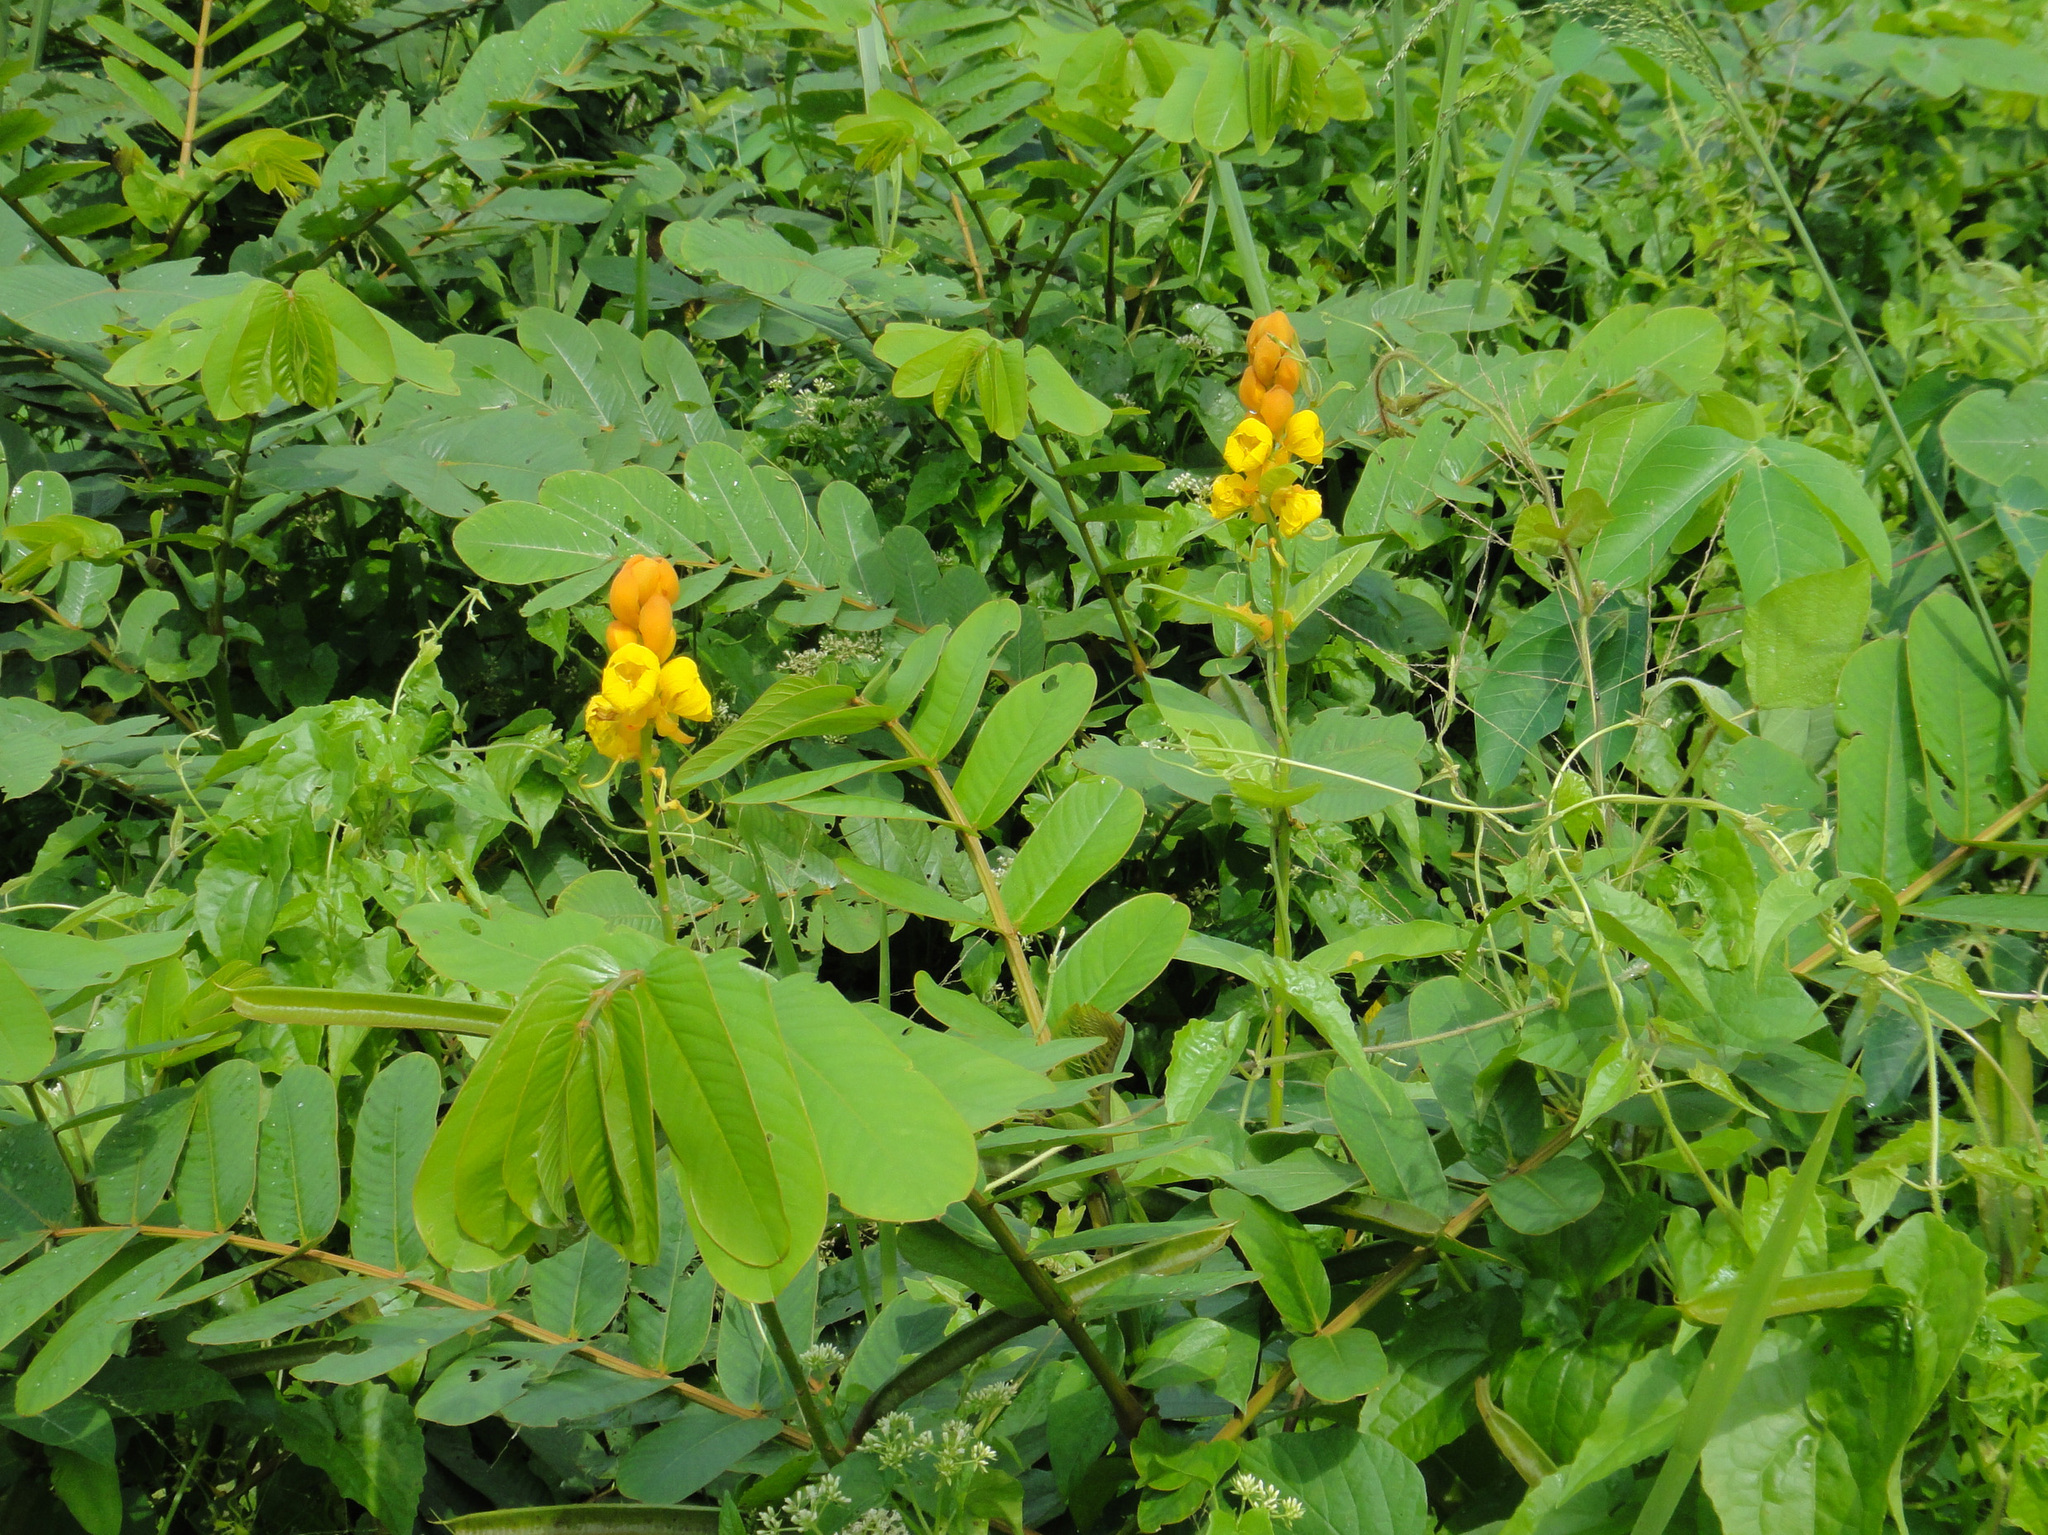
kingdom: Plantae
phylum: Tracheophyta
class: Magnoliopsida
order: Fabales
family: Fabaceae
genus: Senna
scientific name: Senna alata
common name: Emperor's candlesticks
